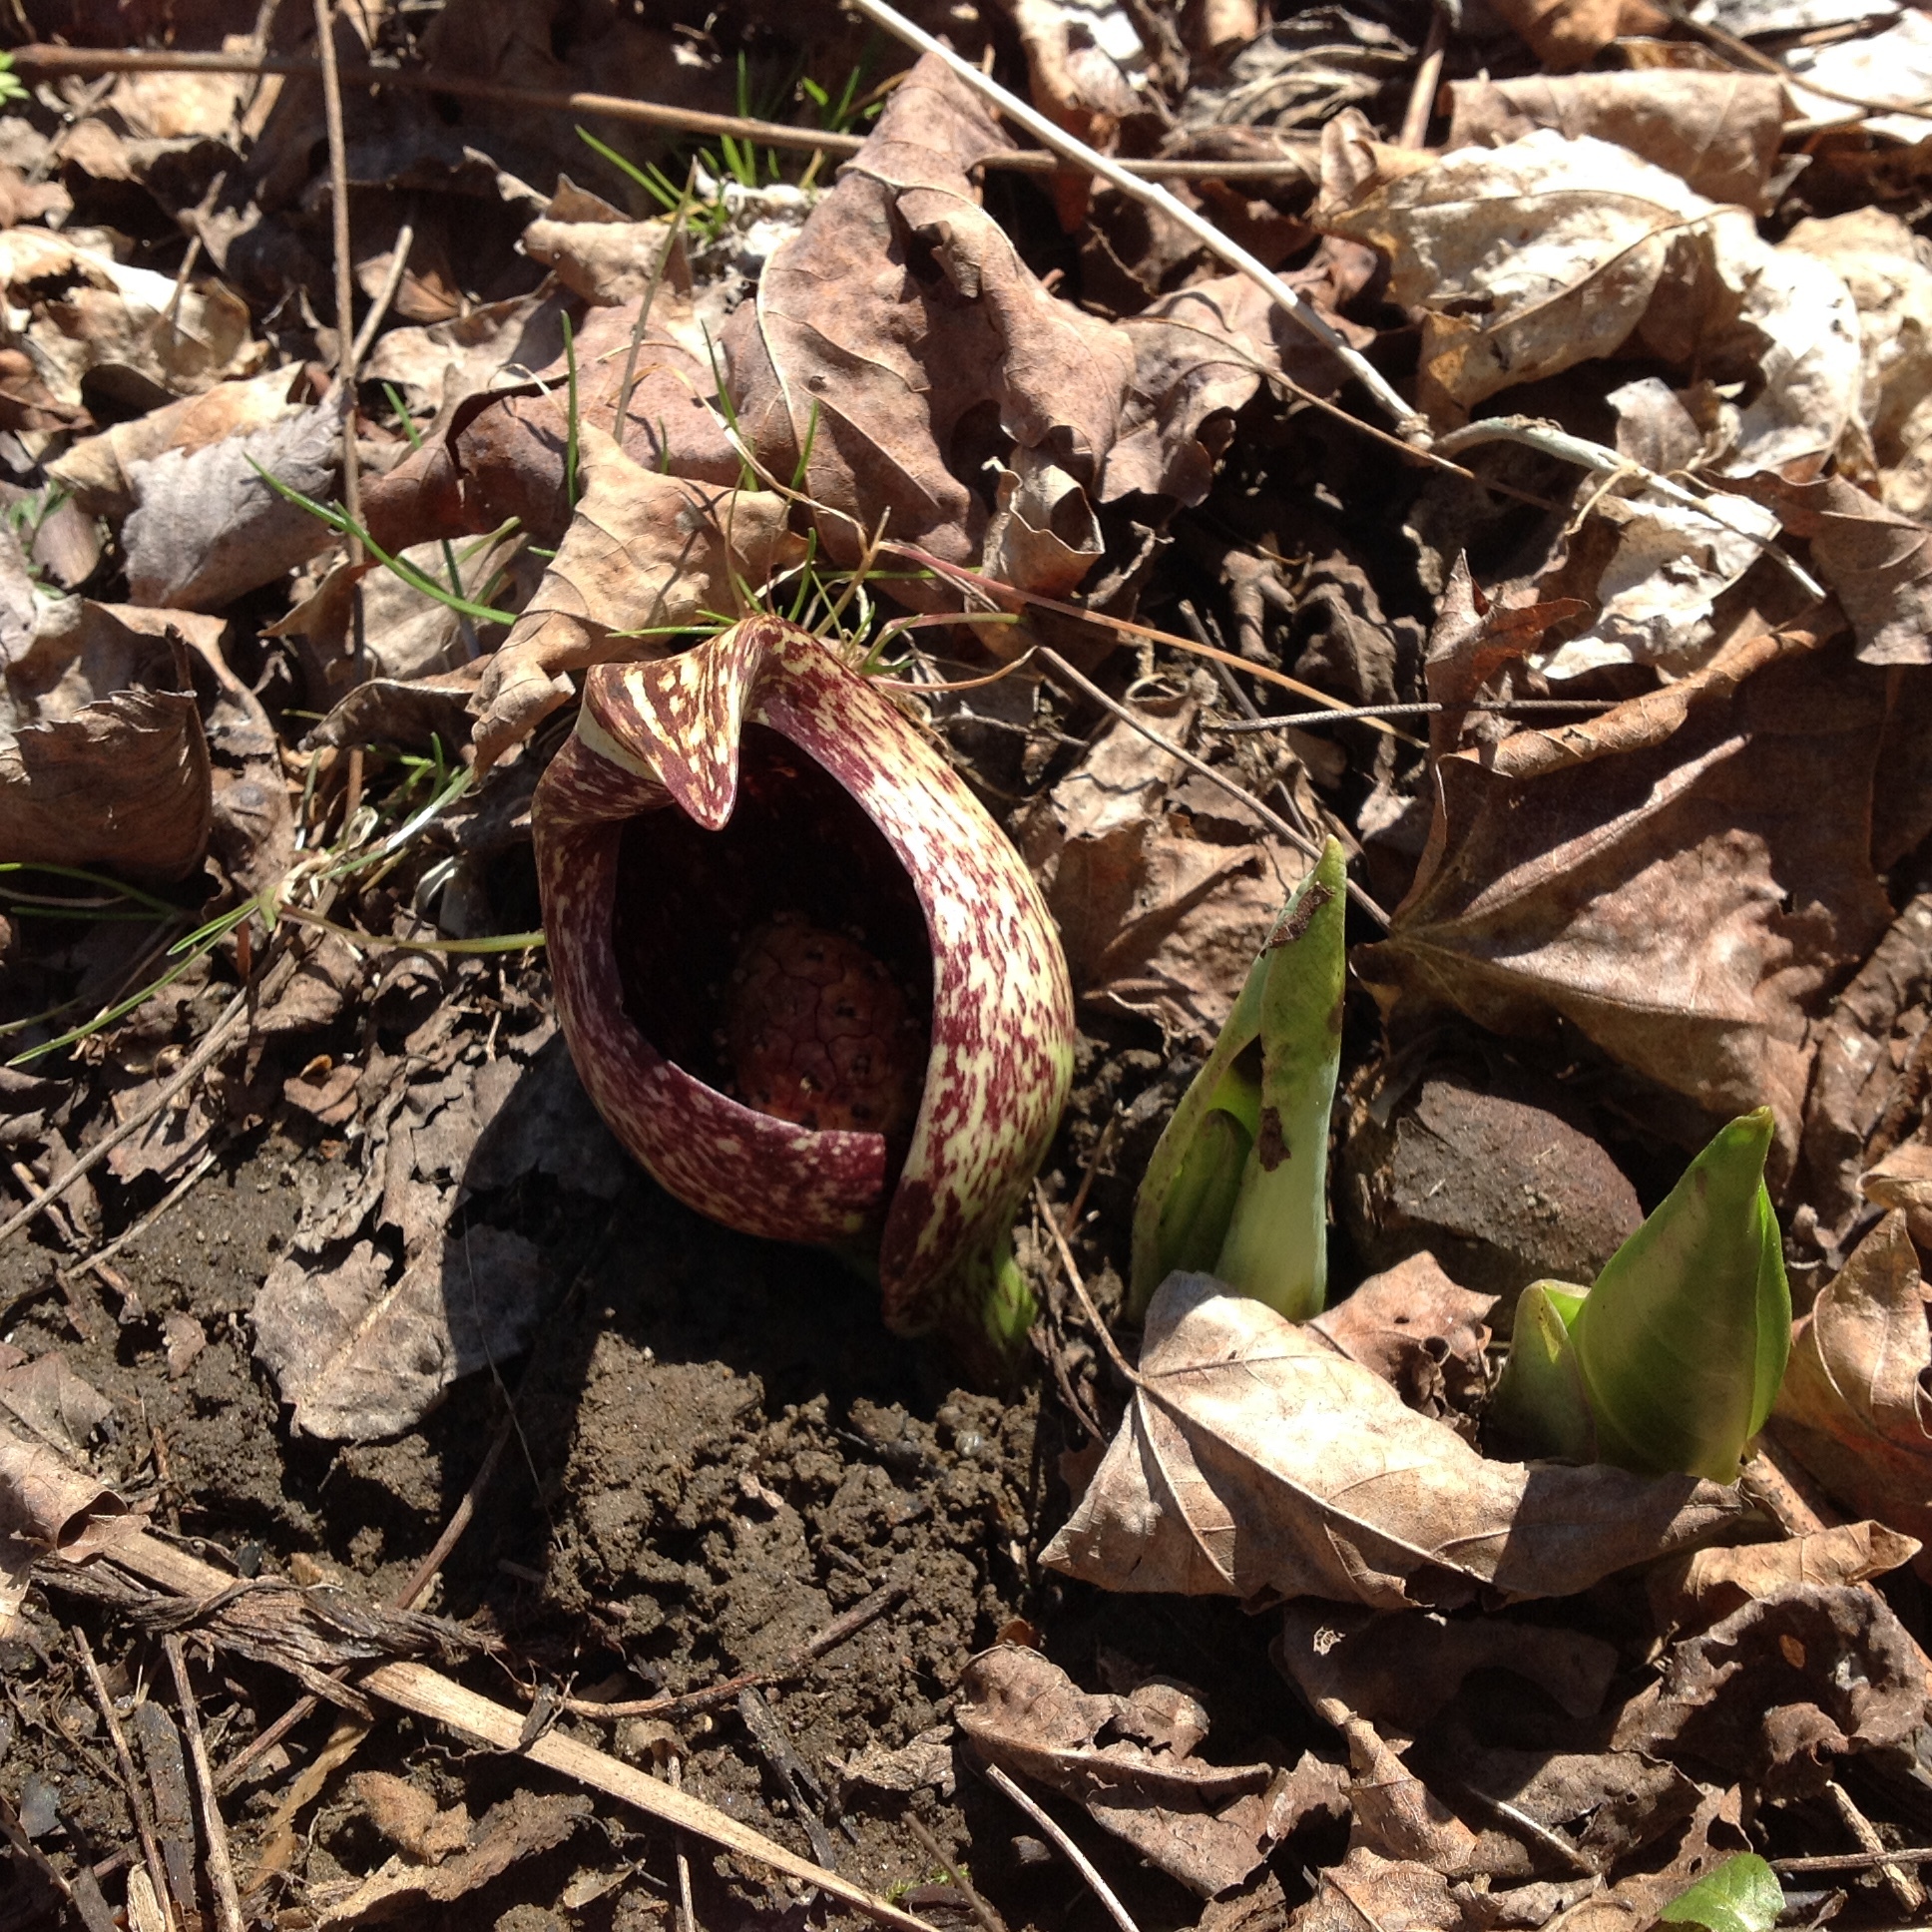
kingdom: Plantae
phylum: Tracheophyta
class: Liliopsida
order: Alismatales
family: Araceae
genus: Symplocarpus
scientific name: Symplocarpus foetidus
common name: Eastern skunk cabbage
